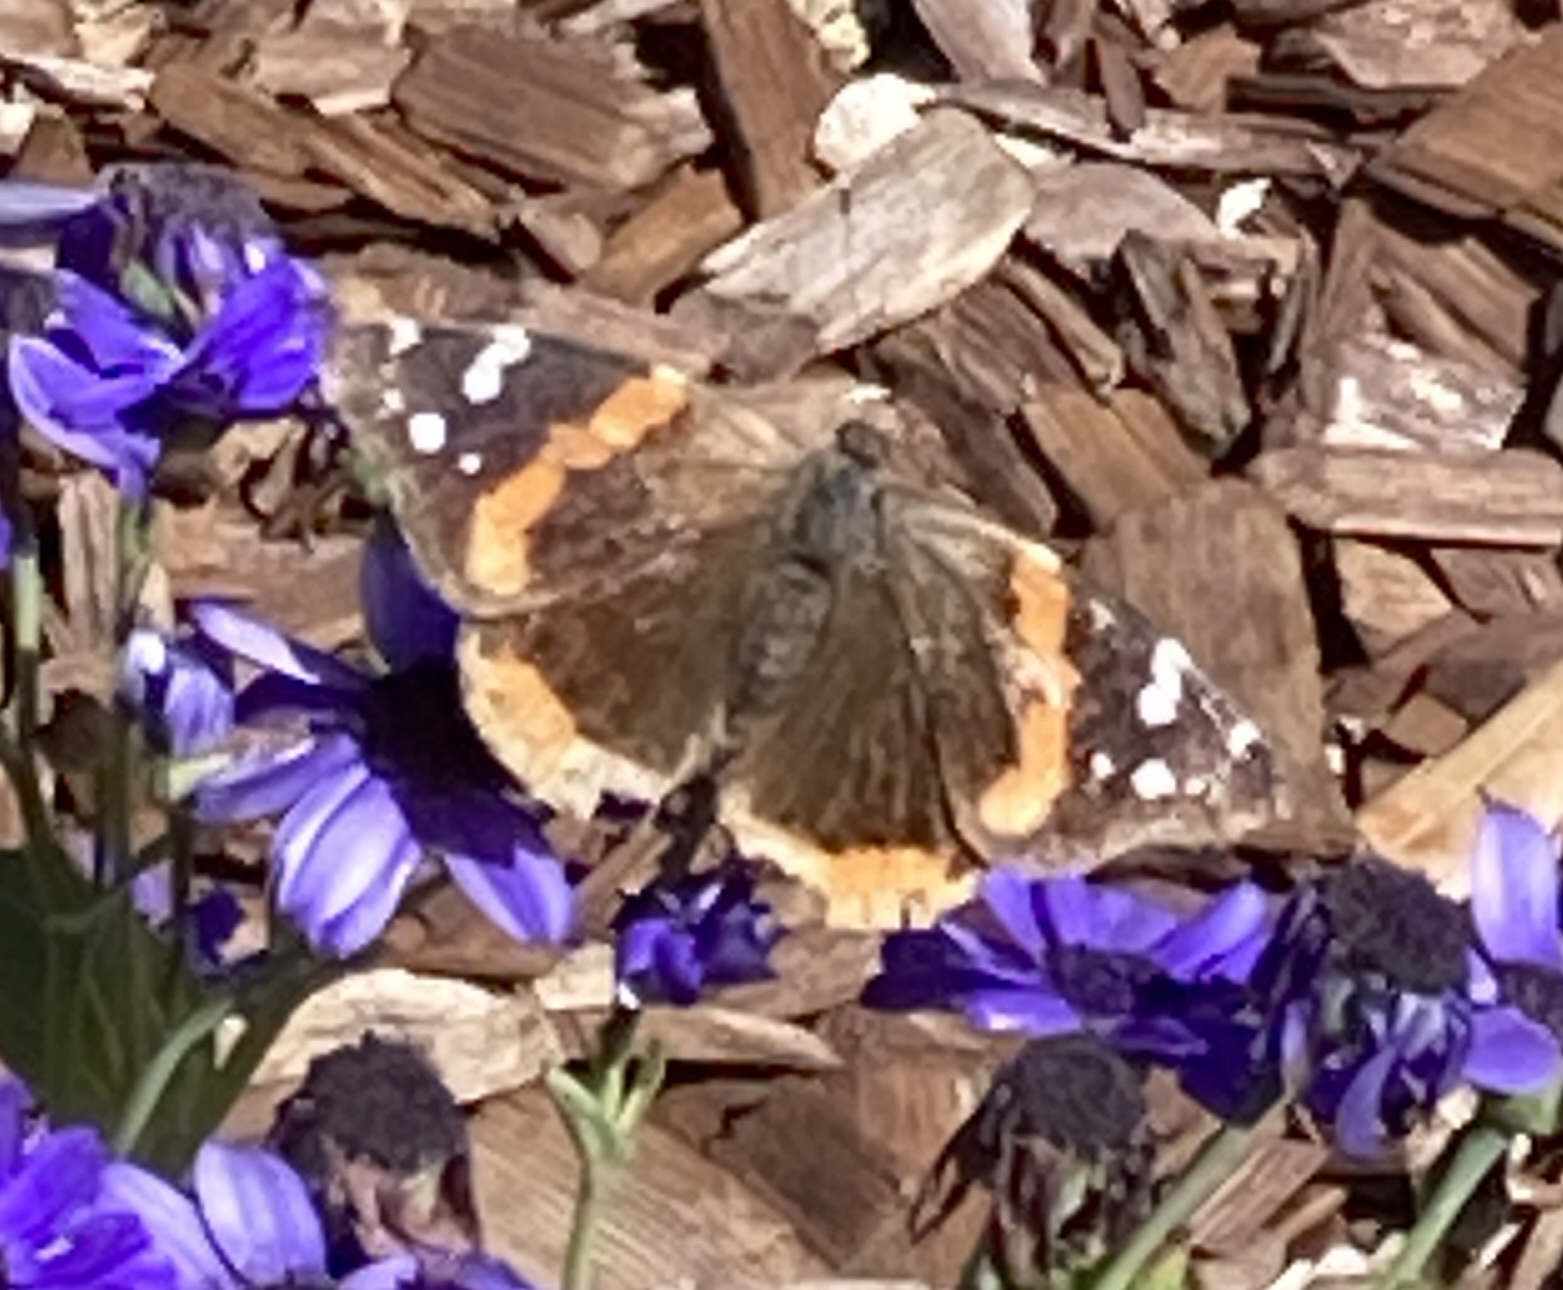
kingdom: Animalia
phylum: Arthropoda
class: Insecta
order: Lepidoptera
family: Nymphalidae
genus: Vanessa
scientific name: Vanessa atalanta
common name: Red admiral
